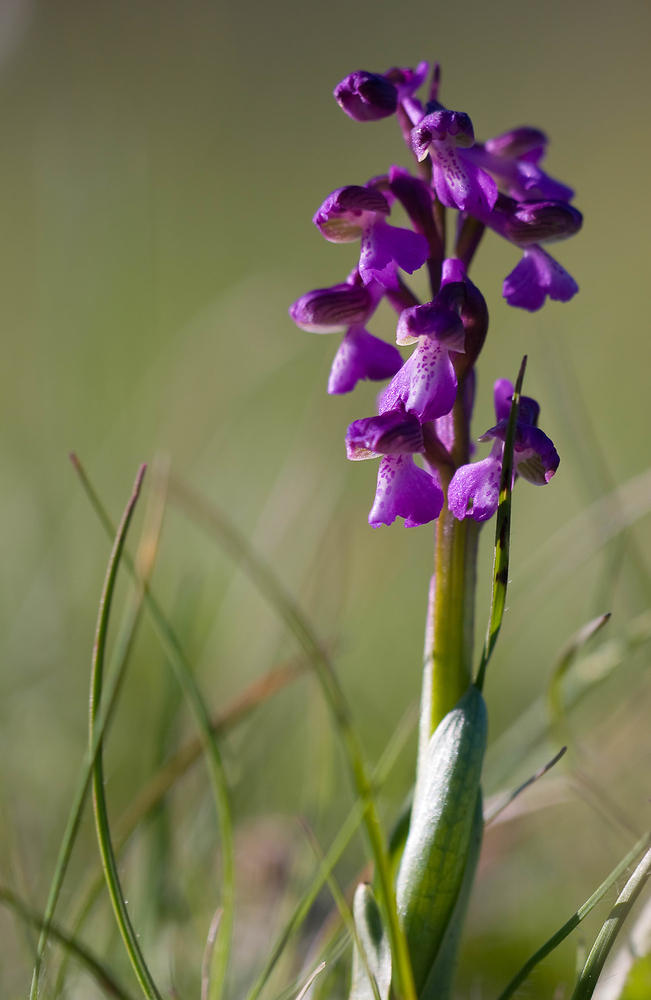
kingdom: Plantae
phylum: Tracheophyta
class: Liliopsida
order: Asparagales
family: Orchidaceae
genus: Anacamptis
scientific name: Anacamptis morio
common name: Green-winged orchid
